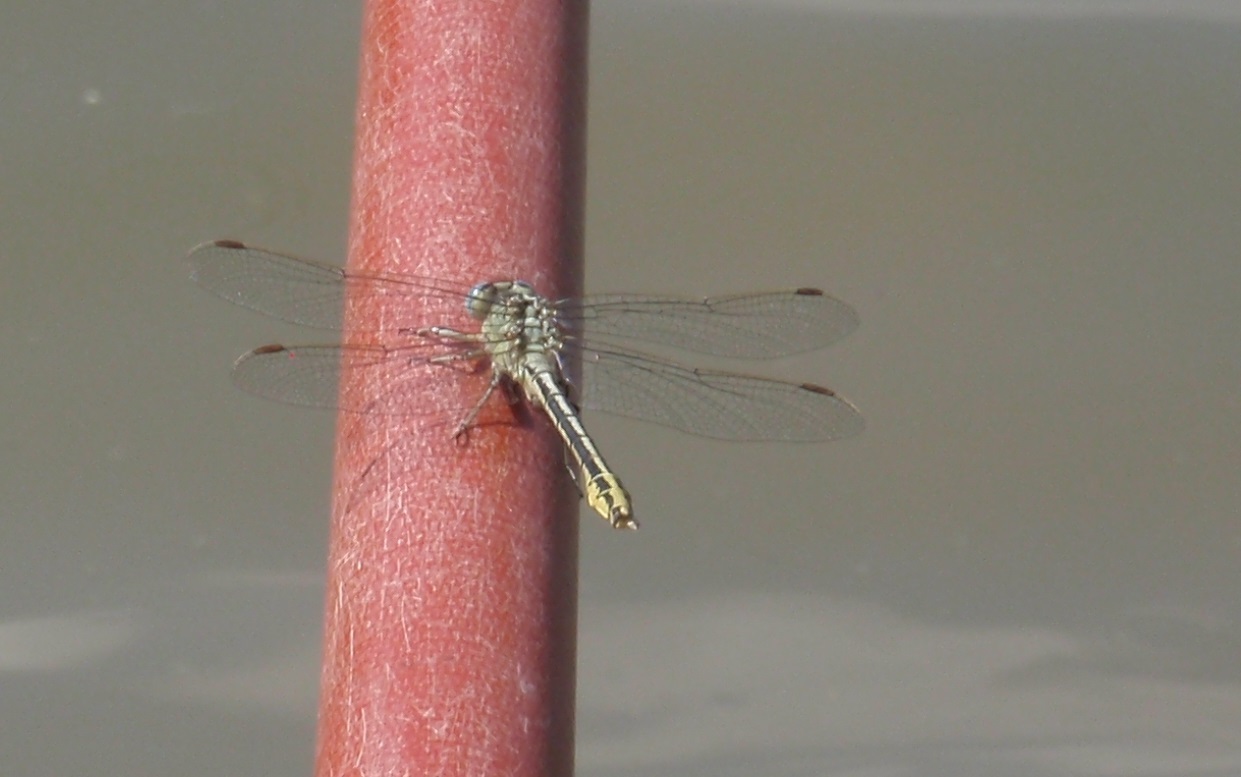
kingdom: Animalia
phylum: Arthropoda
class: Insecta
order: Odonata
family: Gomphidae
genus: Gomphus
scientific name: Gomphus lucasii
